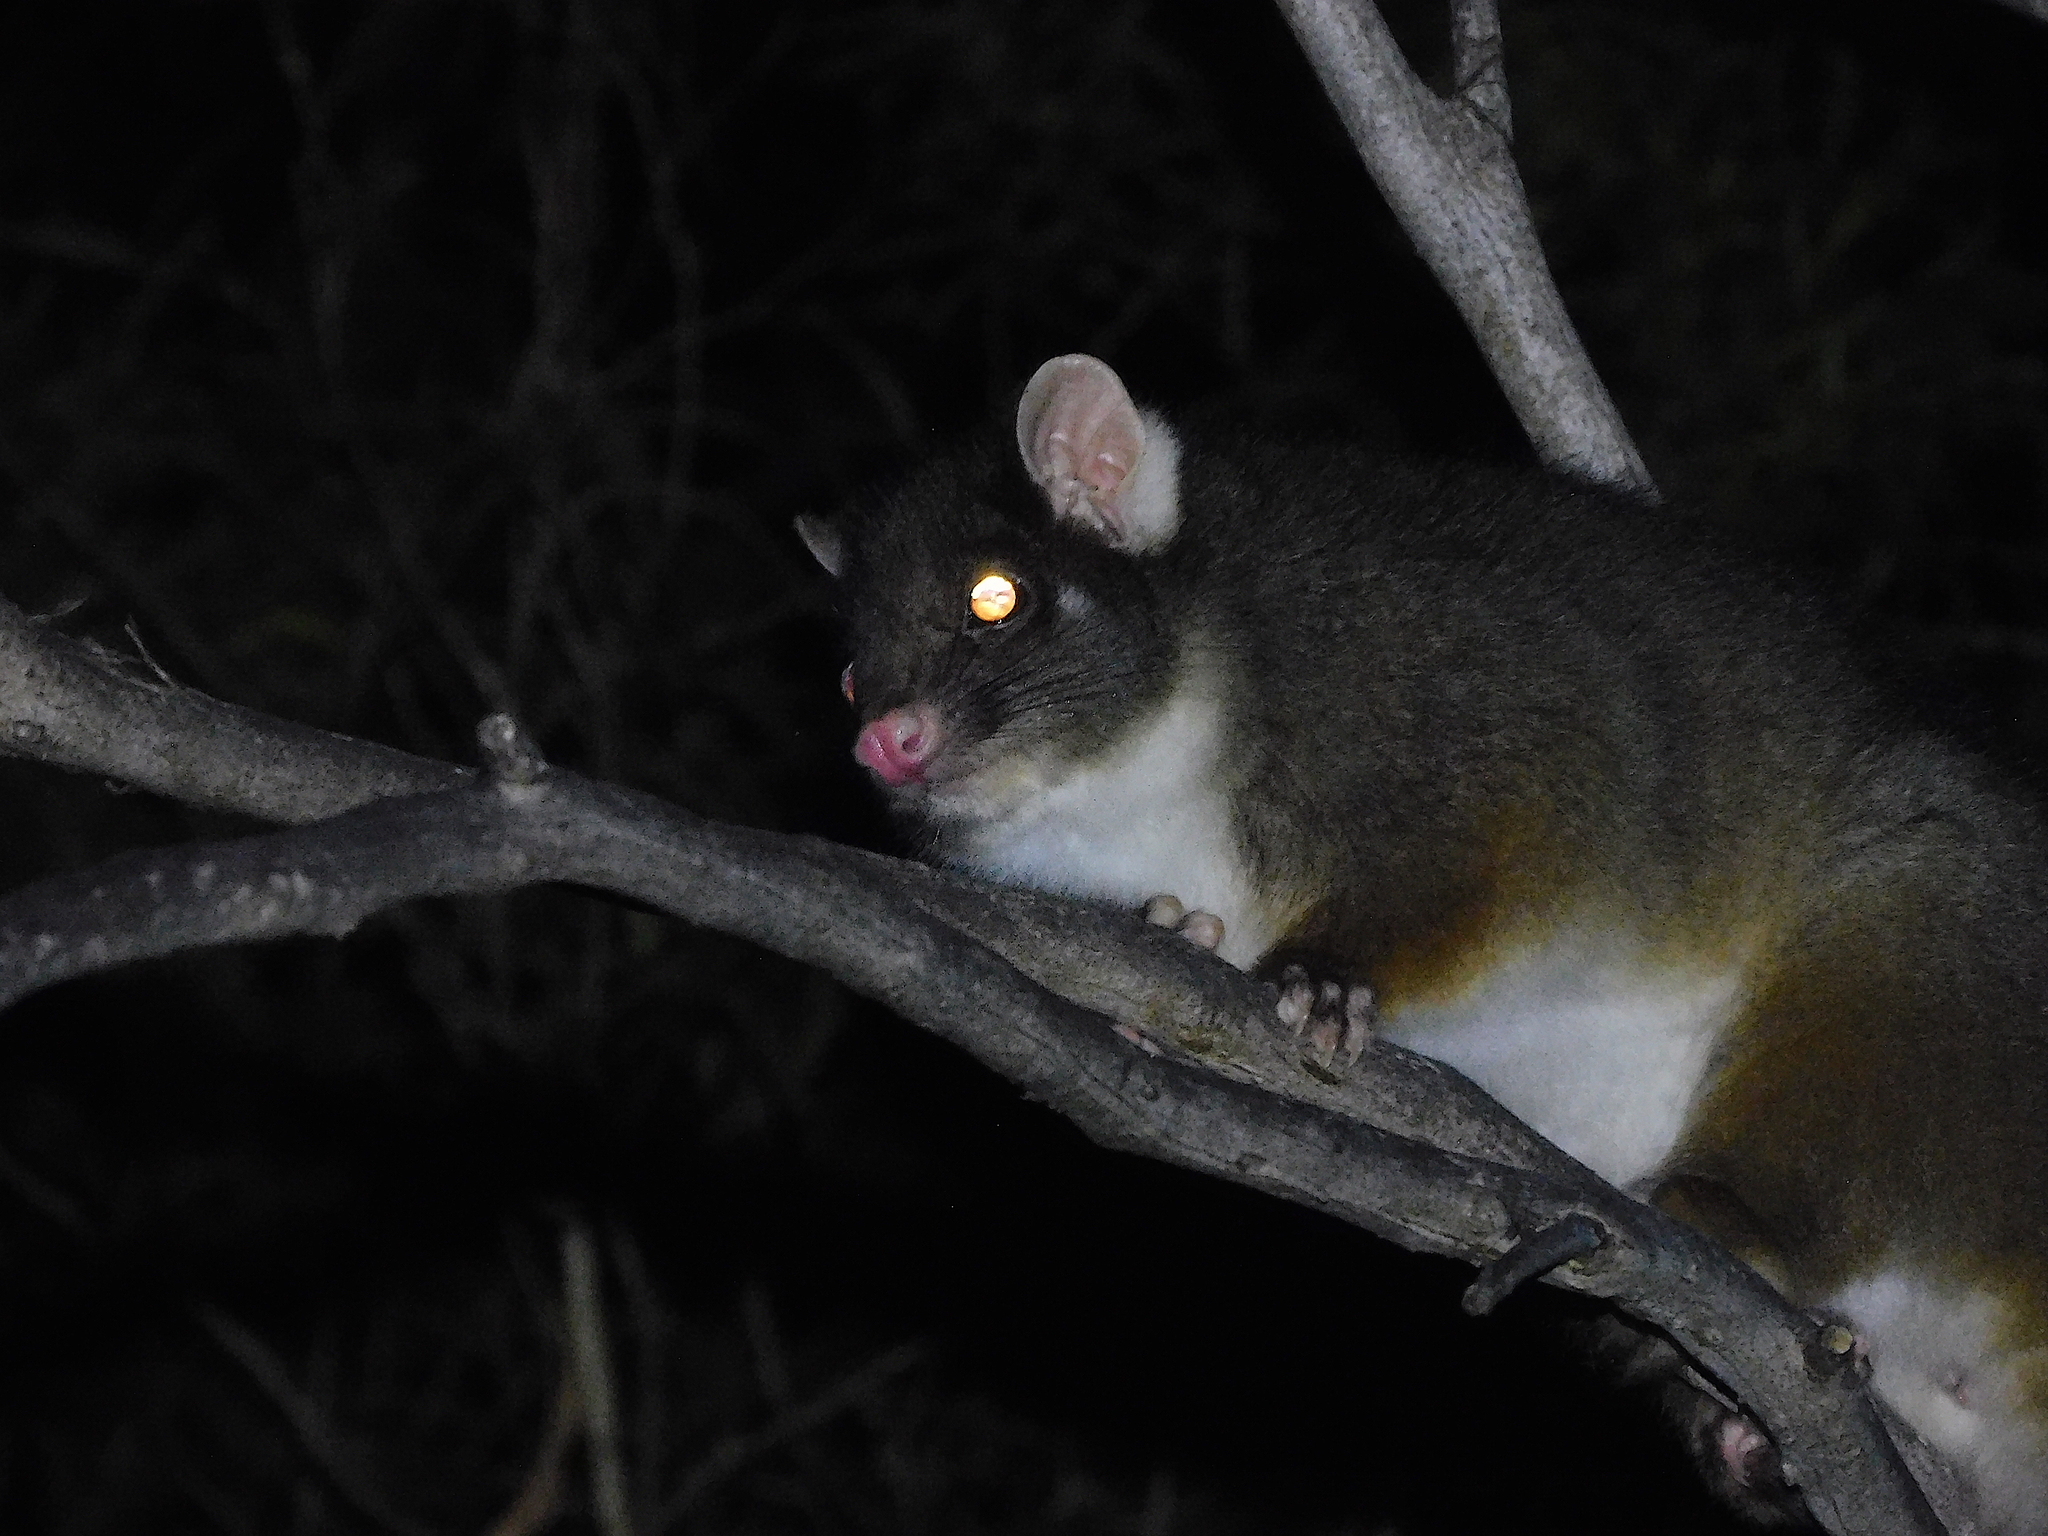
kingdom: Animalia
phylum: Chordata
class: Mammalia
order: Diprotodontia
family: Pseudocheiridae
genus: Pseudocheirus
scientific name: Pseudocheirus peregrinus
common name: Common ringtail possum
